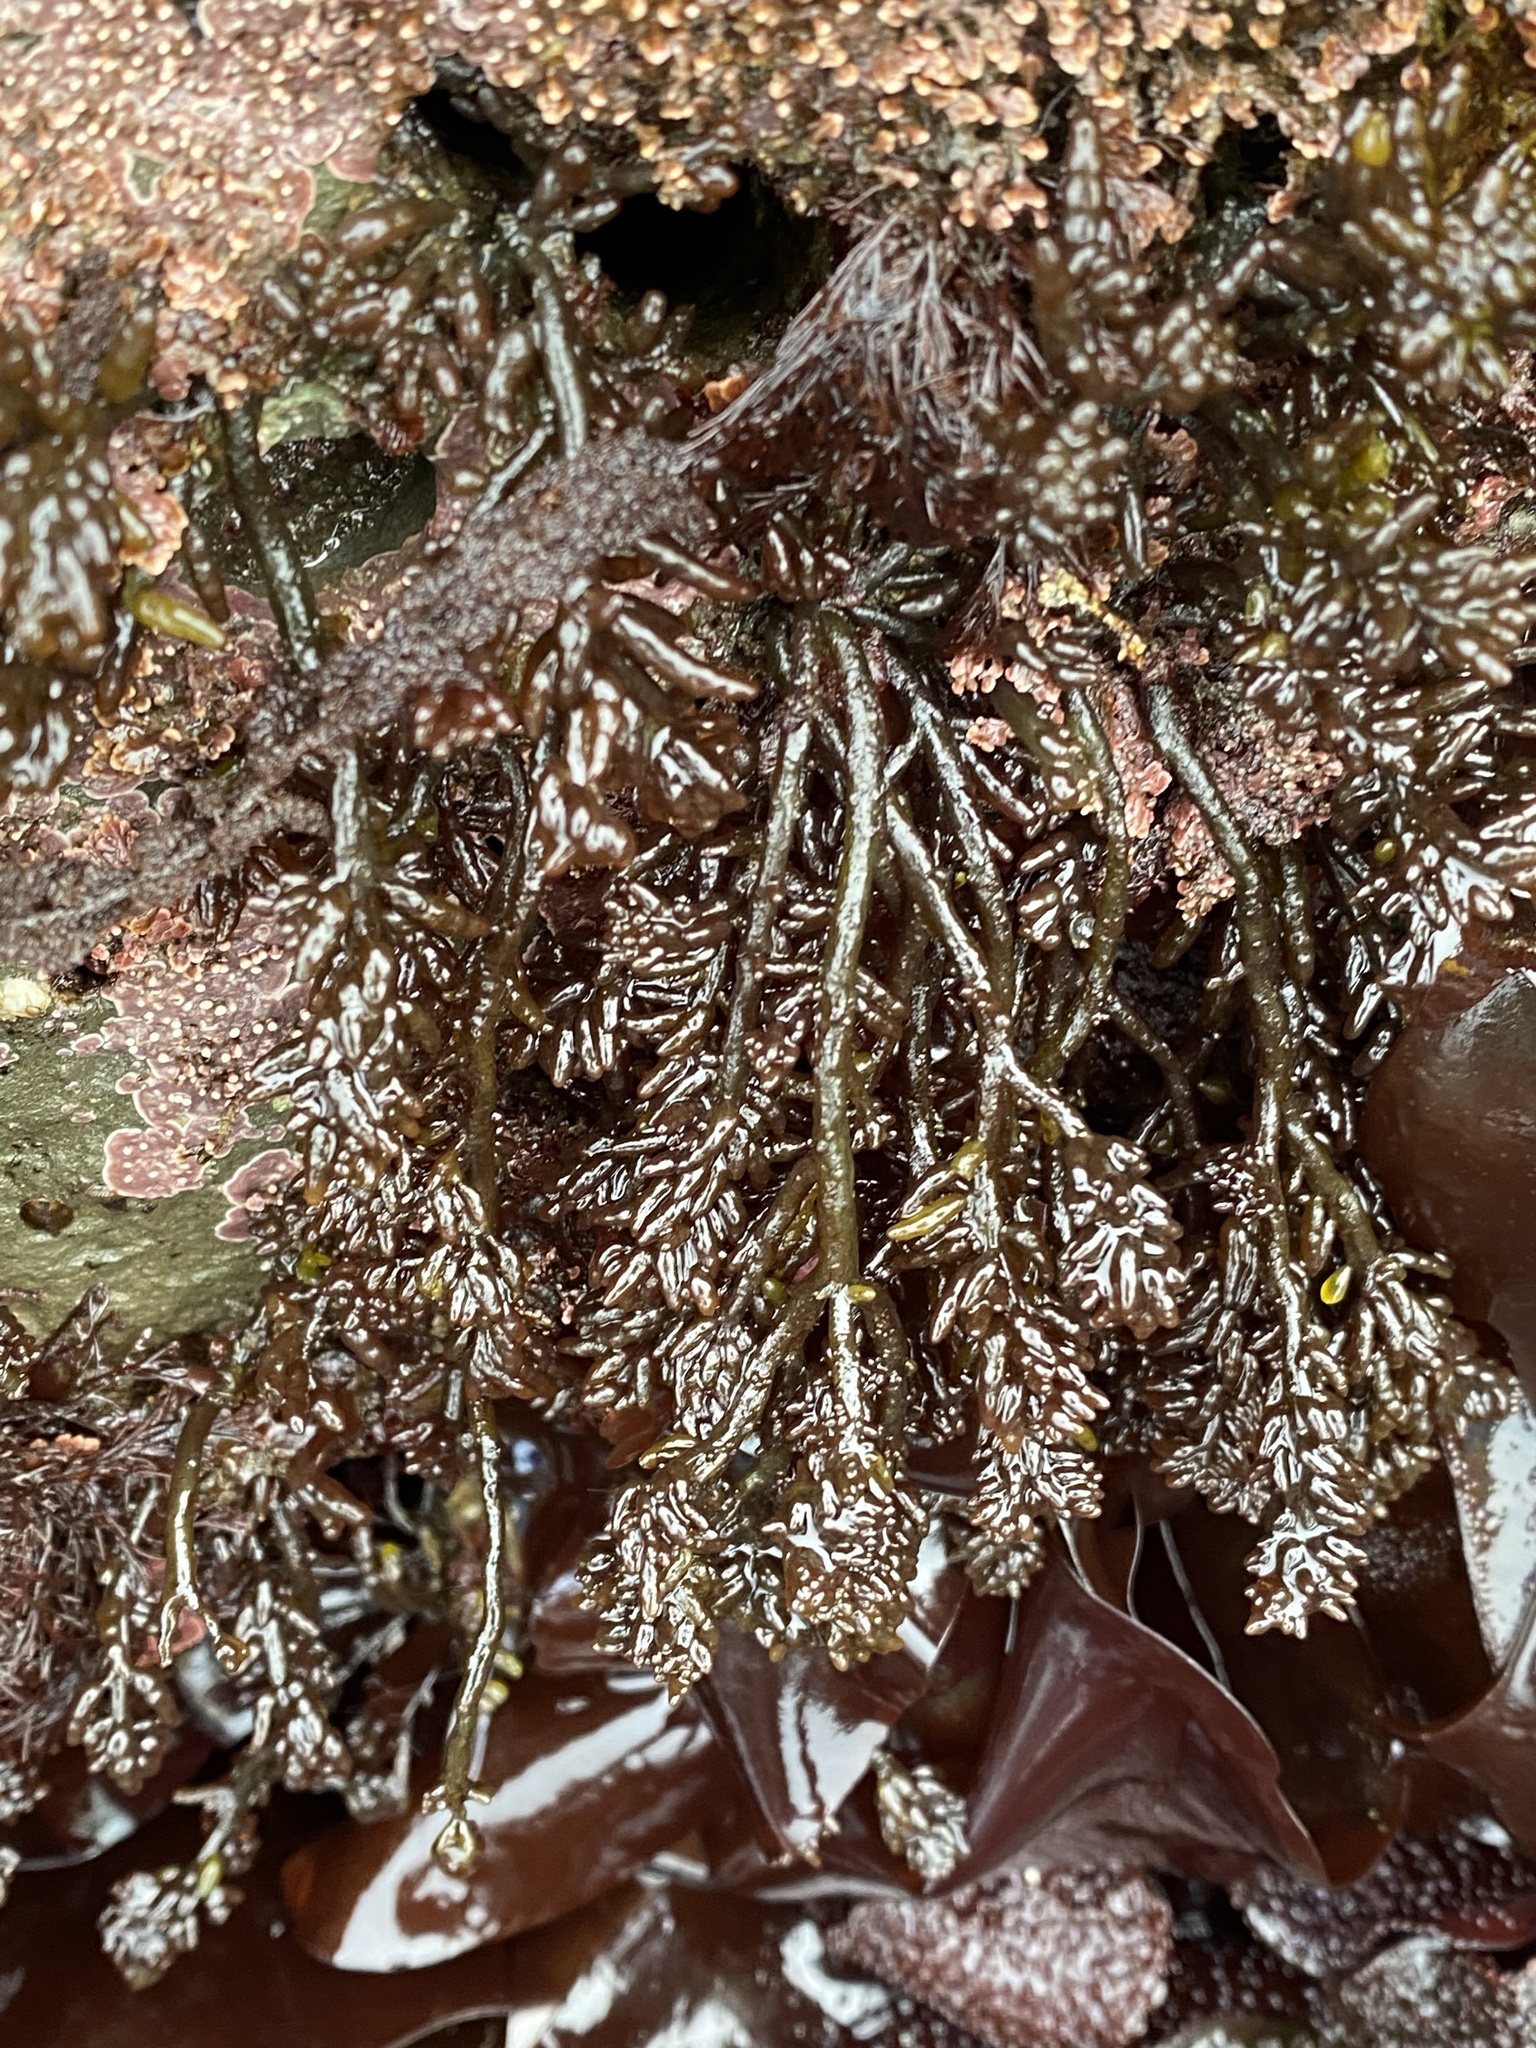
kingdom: Plantae
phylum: Rhodophyta
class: Florideophyceae
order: Rhodymeniales
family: Champiaceae
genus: Neogastroclonium
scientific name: Neogastroclonium subarticulatum
